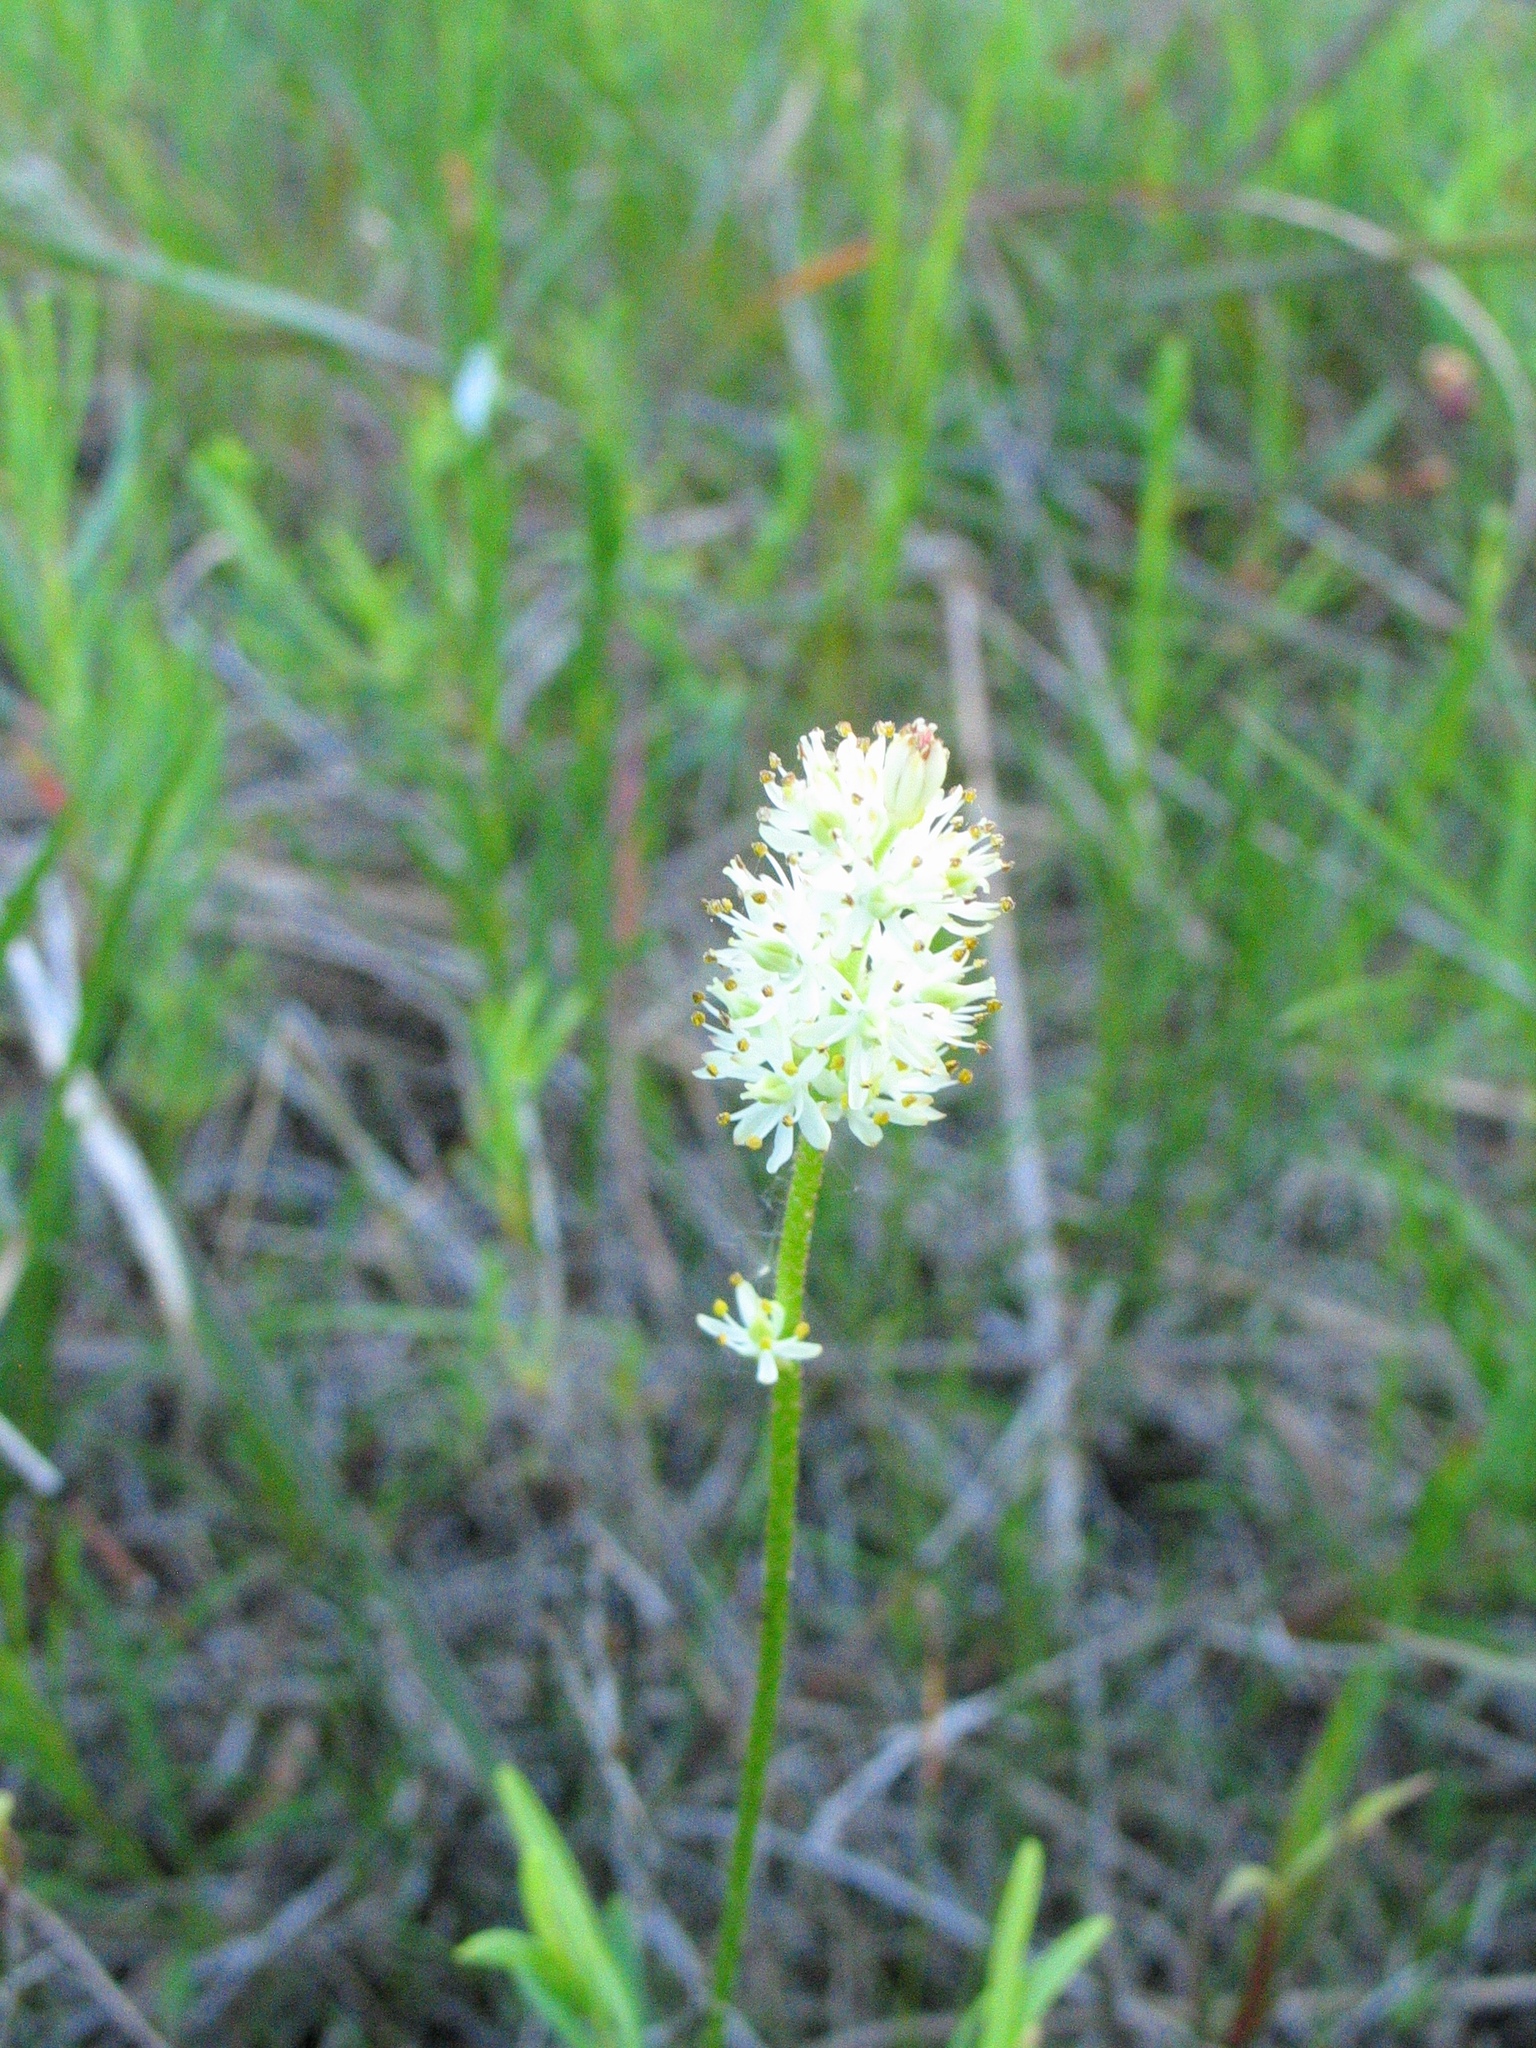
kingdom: Plantae
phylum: Tracheophyta
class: Liliopsida
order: Alismatales
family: Tofieldiaceae
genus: Triantha
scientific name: Triantha glutinosa
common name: Glutinous tofieldia
